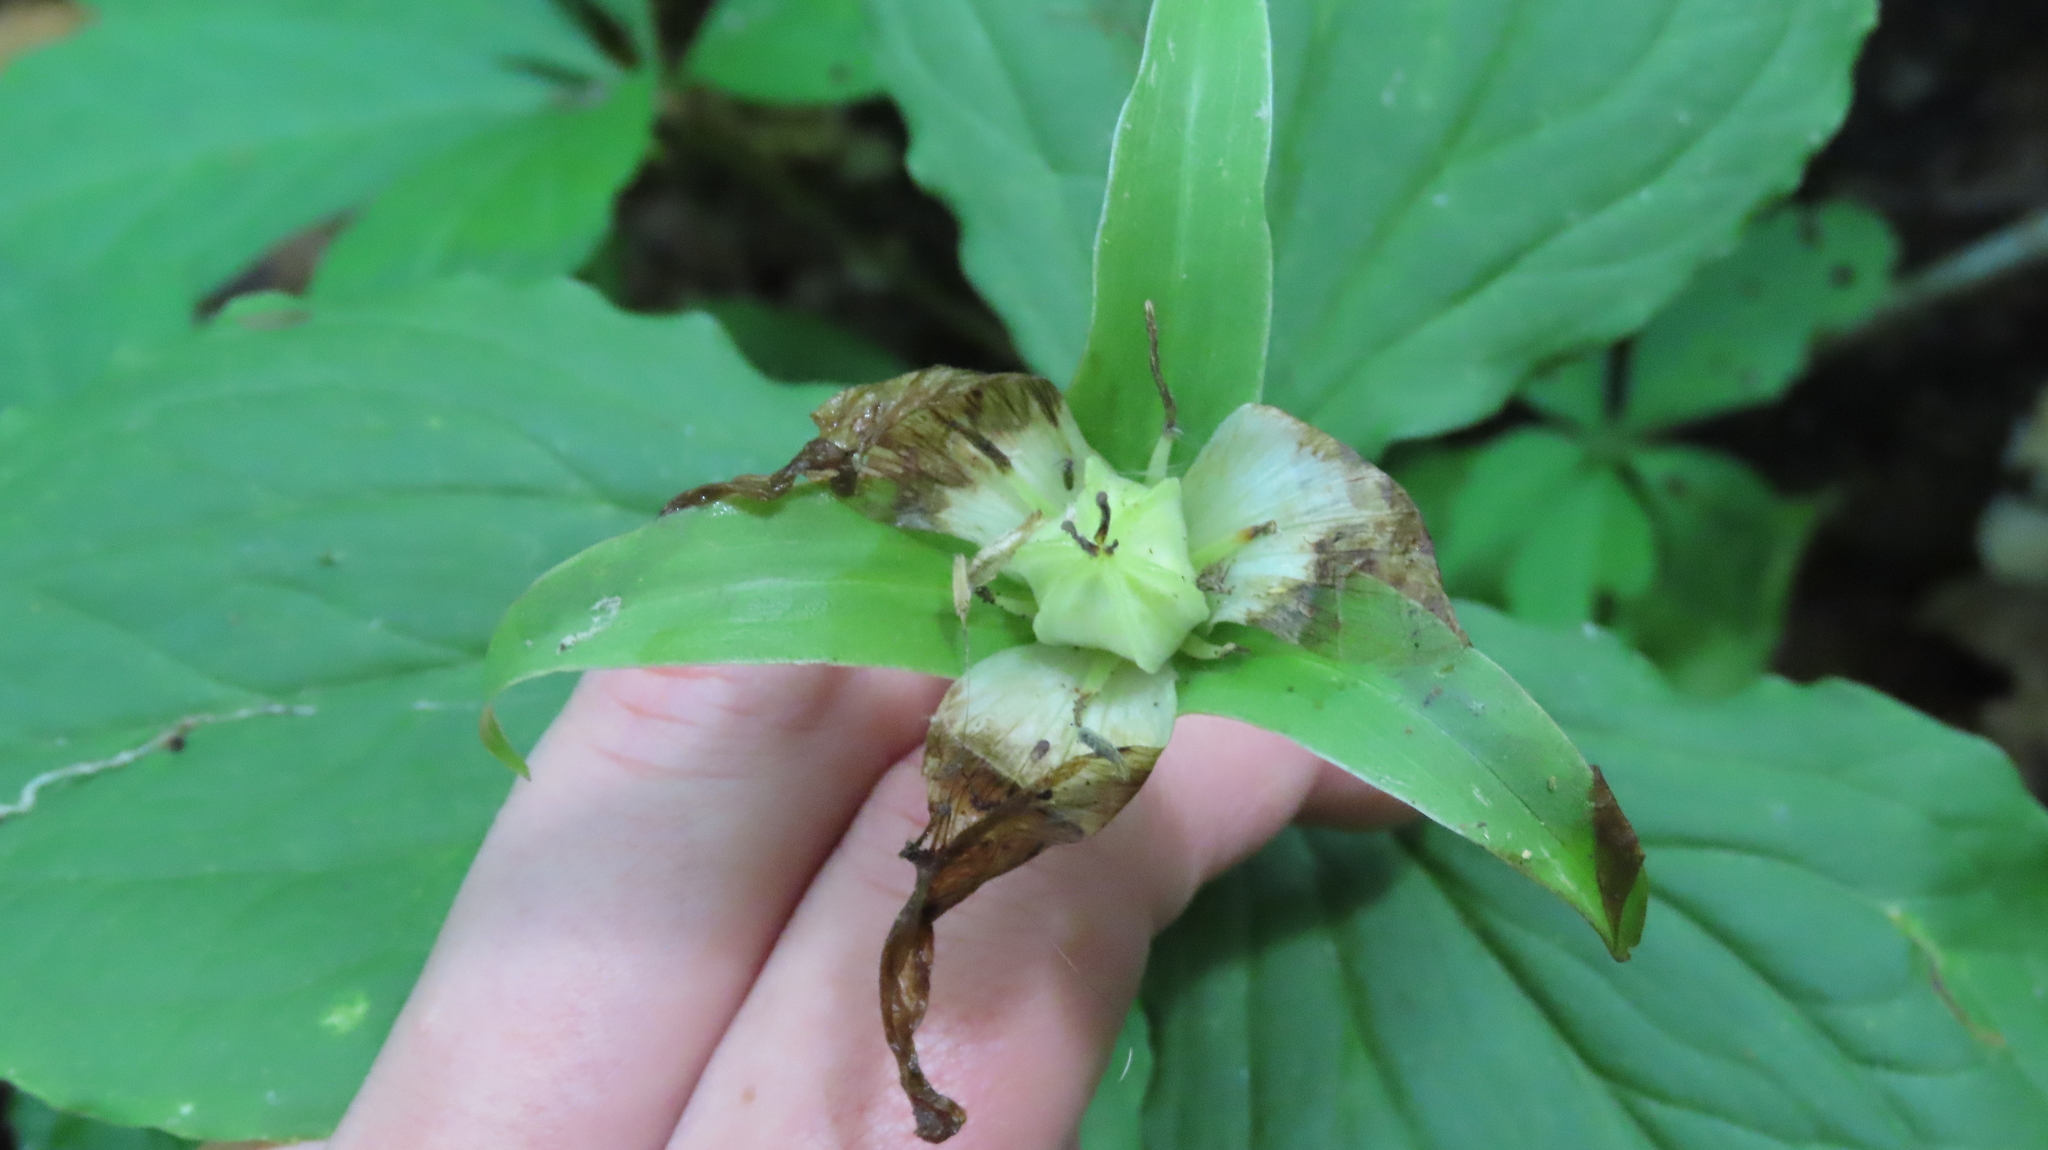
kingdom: Plantae
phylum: Tracheophyta
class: Liliopsida
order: Liliales
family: Melanthiaceae
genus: Trillium
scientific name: Trillium grandiflorum
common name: Great white trillium
